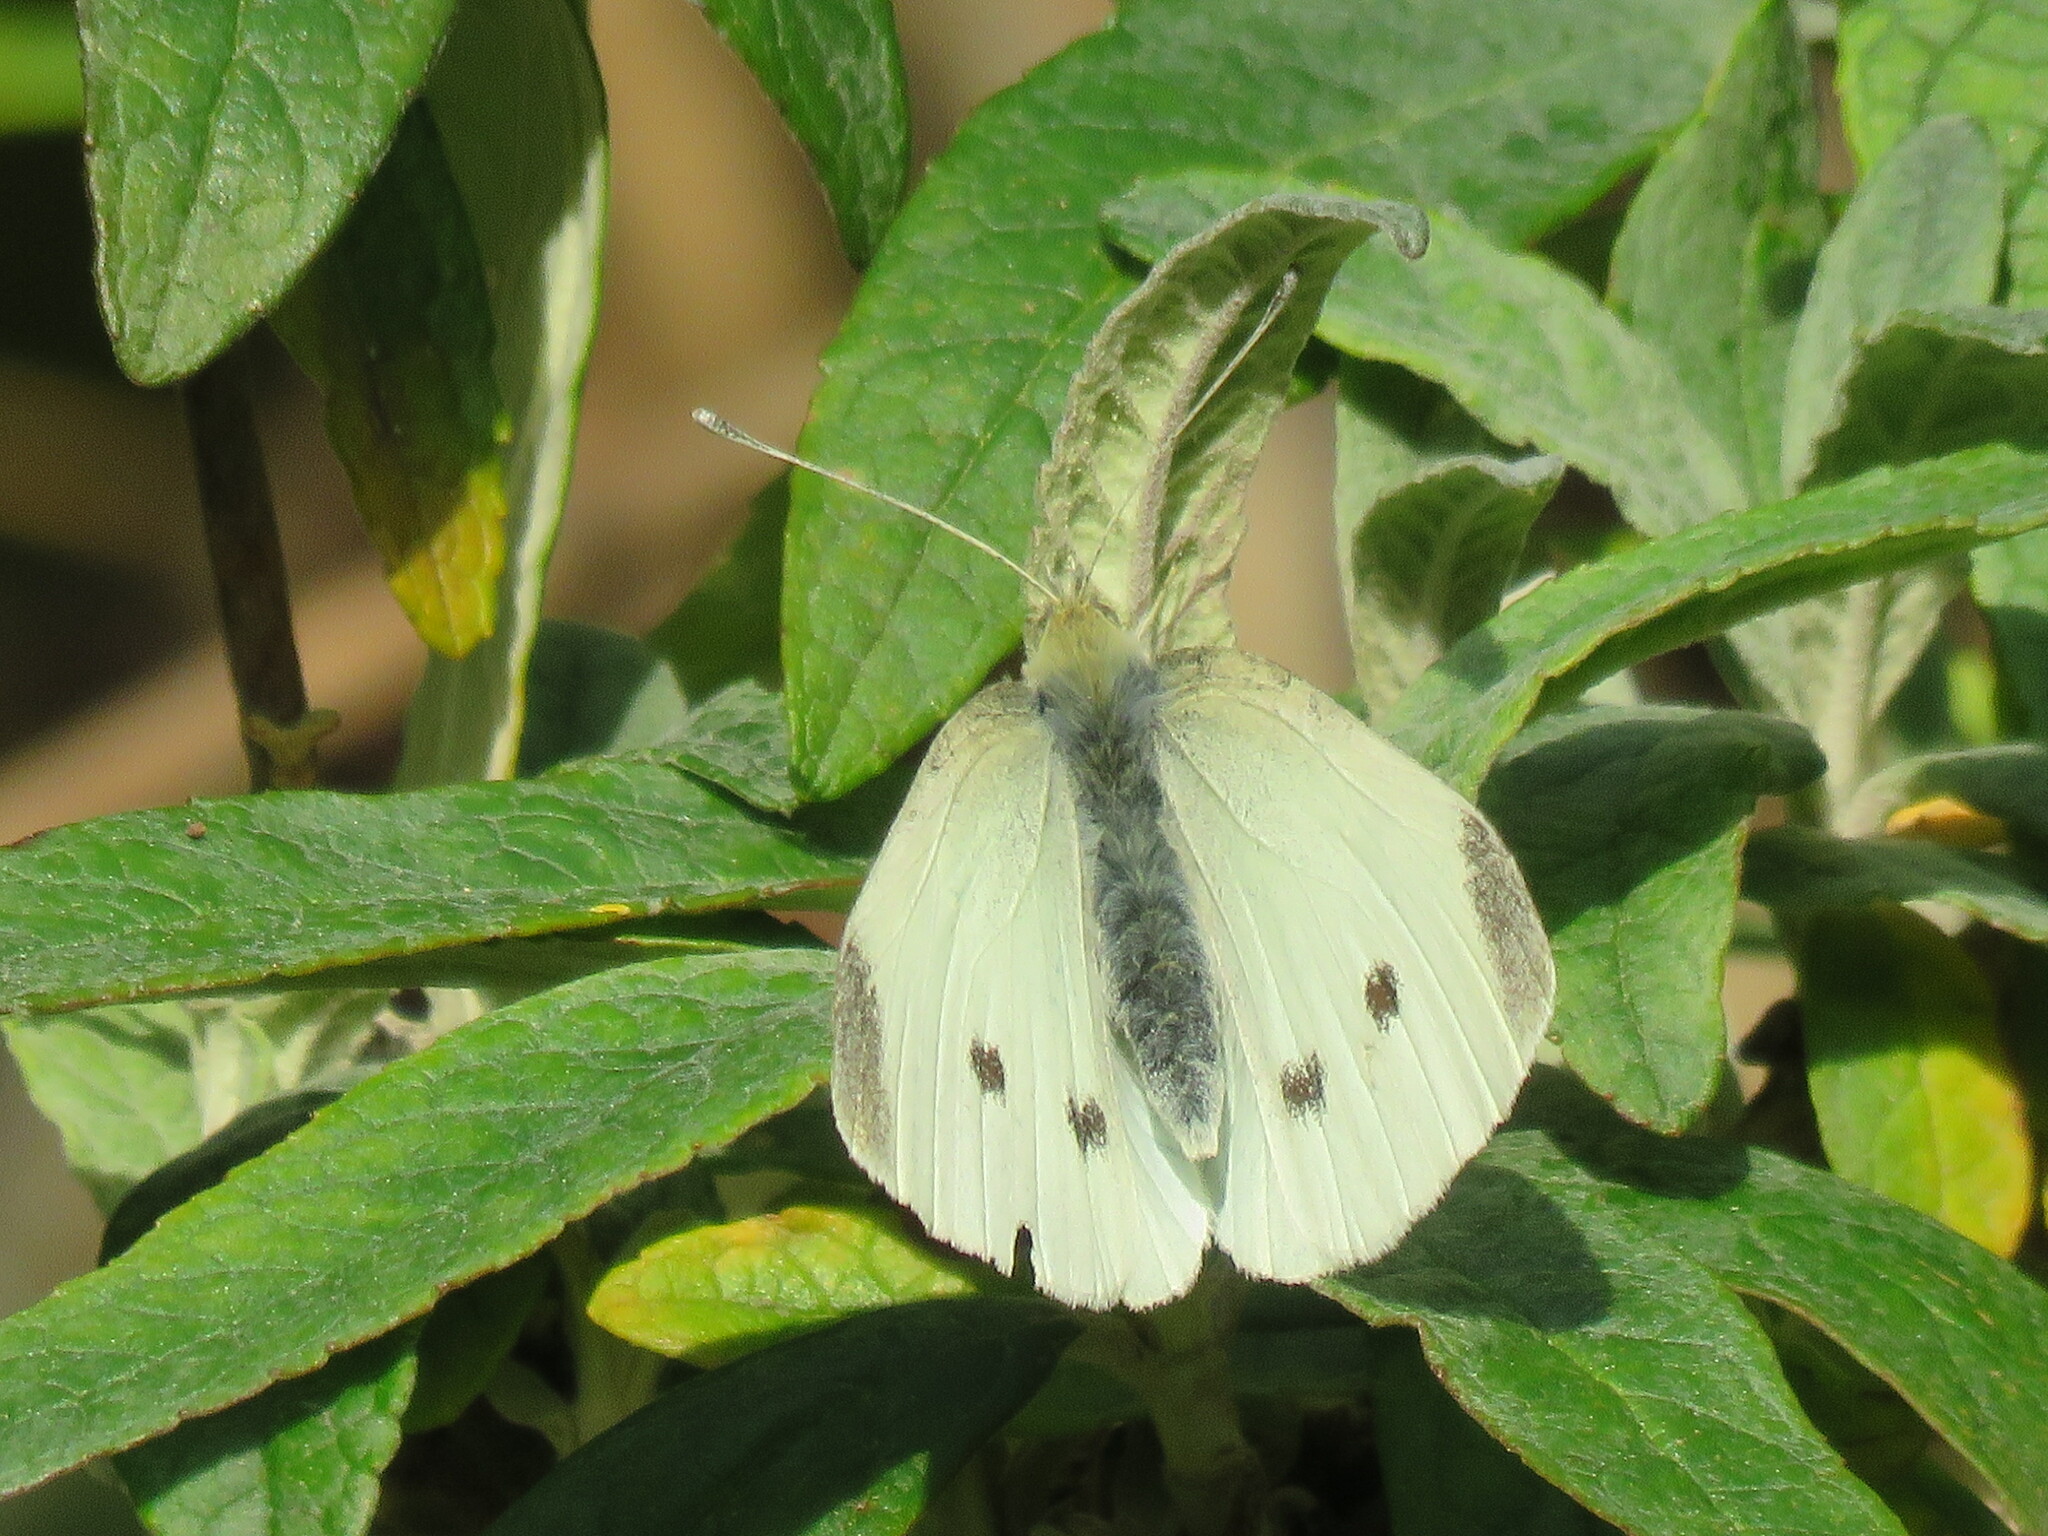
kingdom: Animalia
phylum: Arthropoda
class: Insecta
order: Lepidoptera
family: Pieridae
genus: Pieris
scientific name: Pieris rapae
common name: Small white
